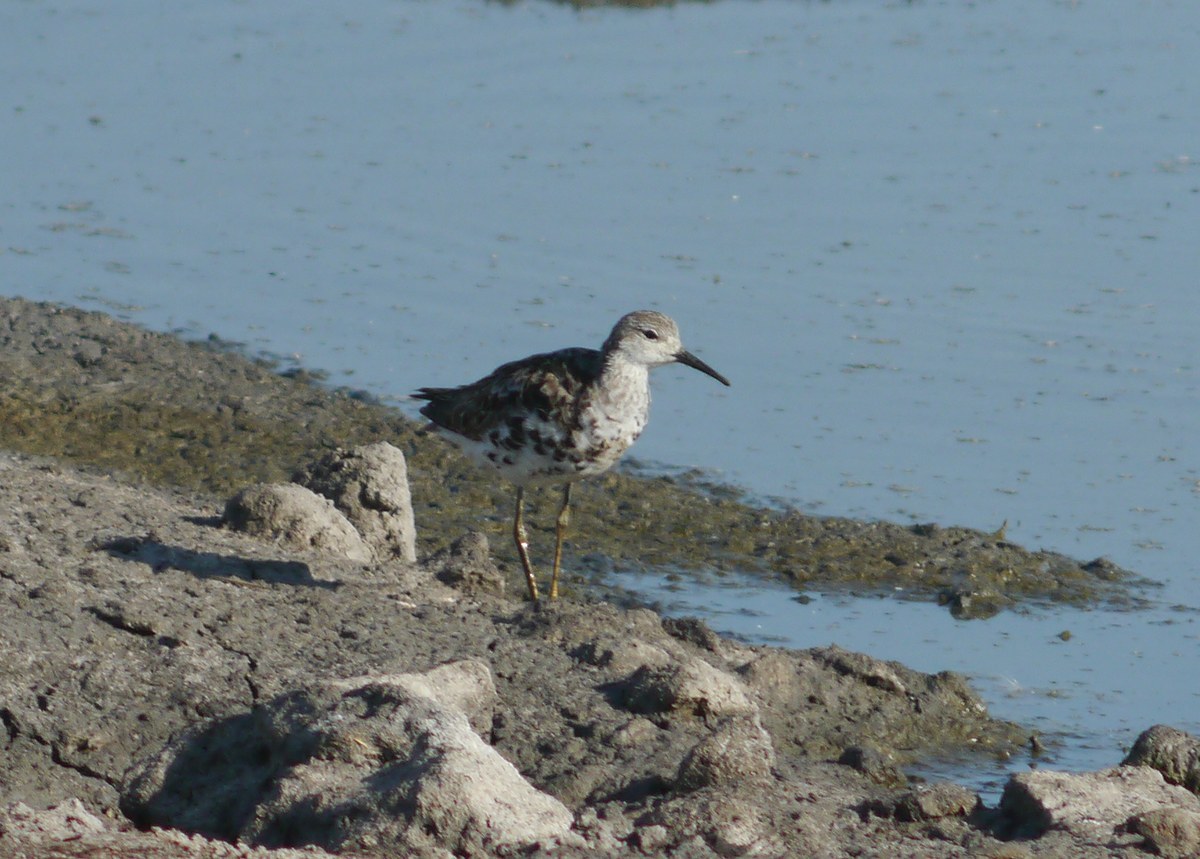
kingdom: Animalia
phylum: Chordata
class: Aves
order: Charadriiformes
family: Scolopacidae
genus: Calidris
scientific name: Calidris pugnax
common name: Ruff
